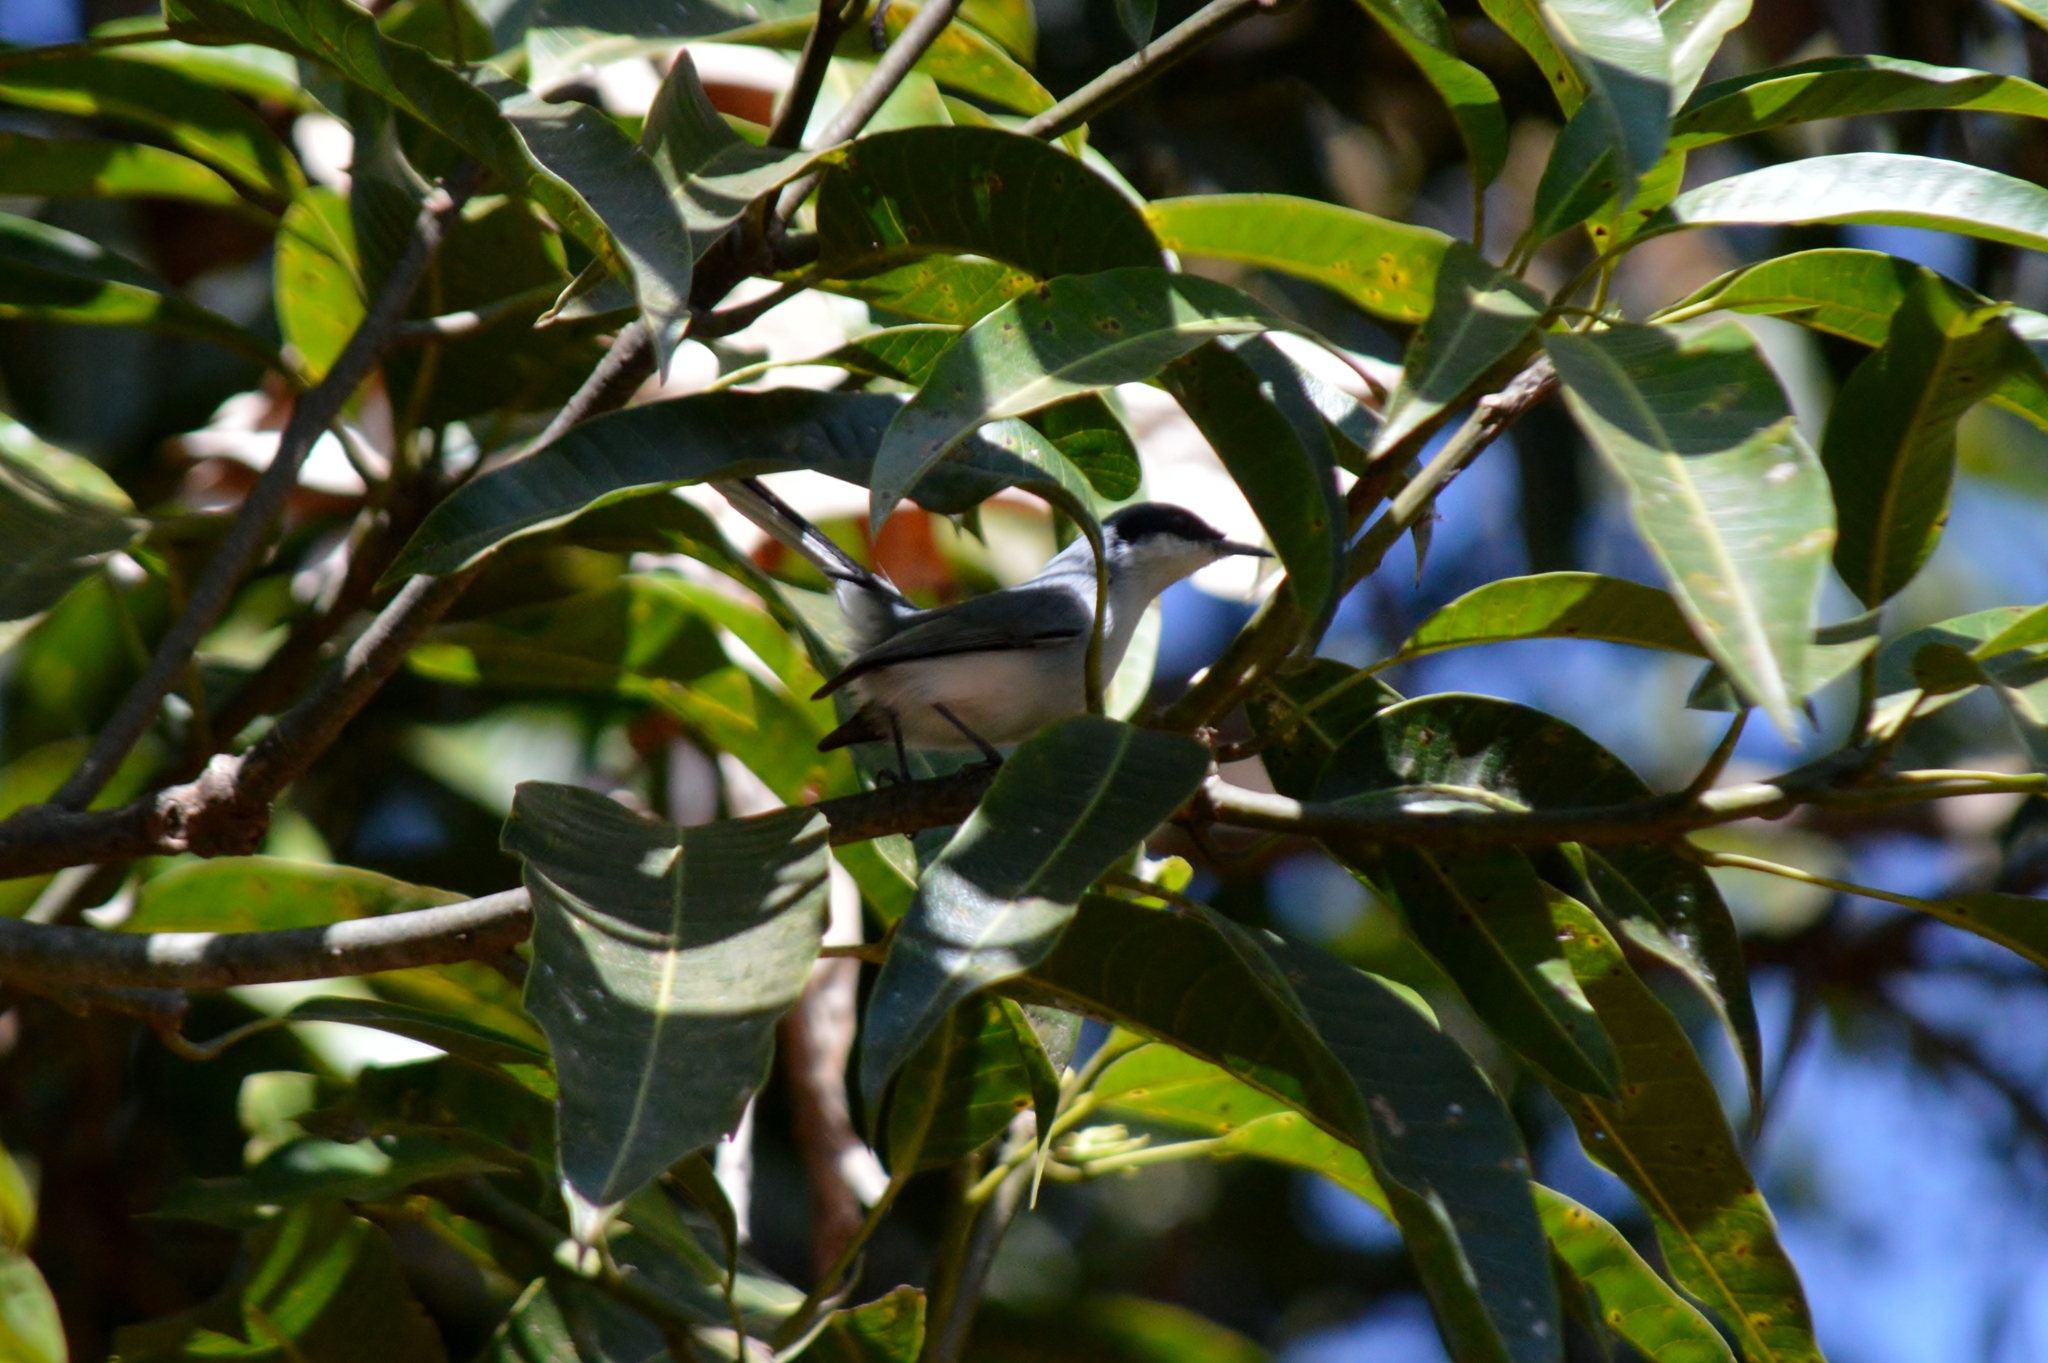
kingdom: Animalia
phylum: Chordata
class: Aves
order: Passeriformes
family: Polioptilidae
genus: Polioptila
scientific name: Polioptila dumicola
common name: Masked gnatcatcher
